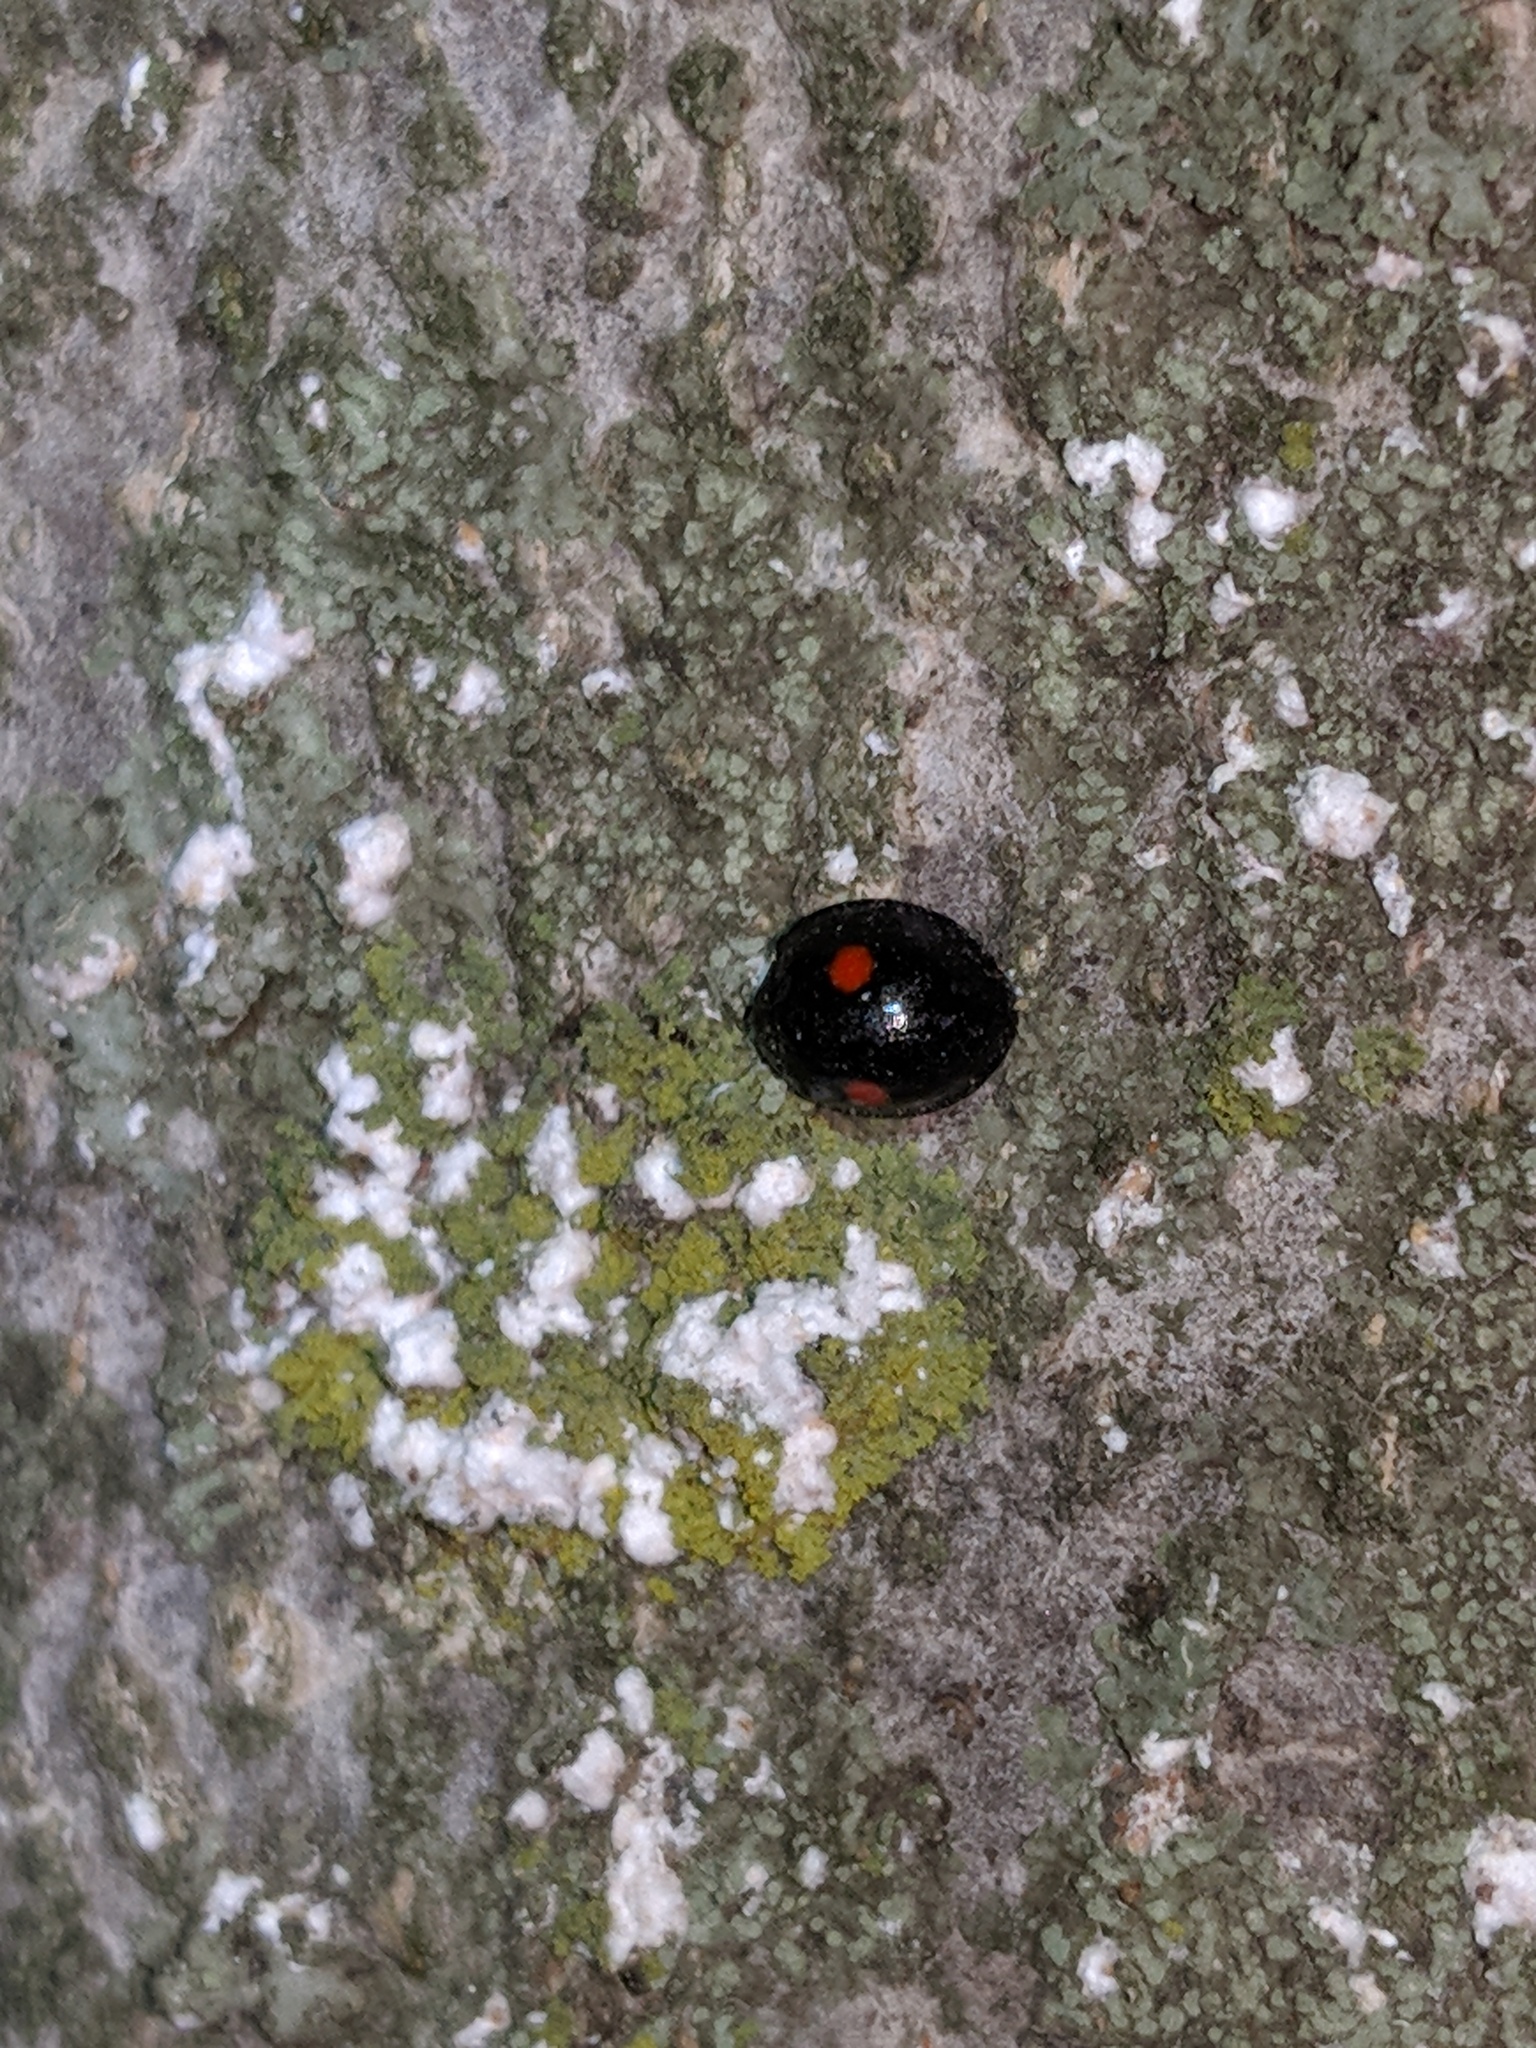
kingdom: Animalia
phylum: Arthropoda
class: Insecta
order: Coleoptera
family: Coccinellidae
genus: Chilocorus
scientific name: Chilocorus stigma
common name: Twicestabbed lady beetle
